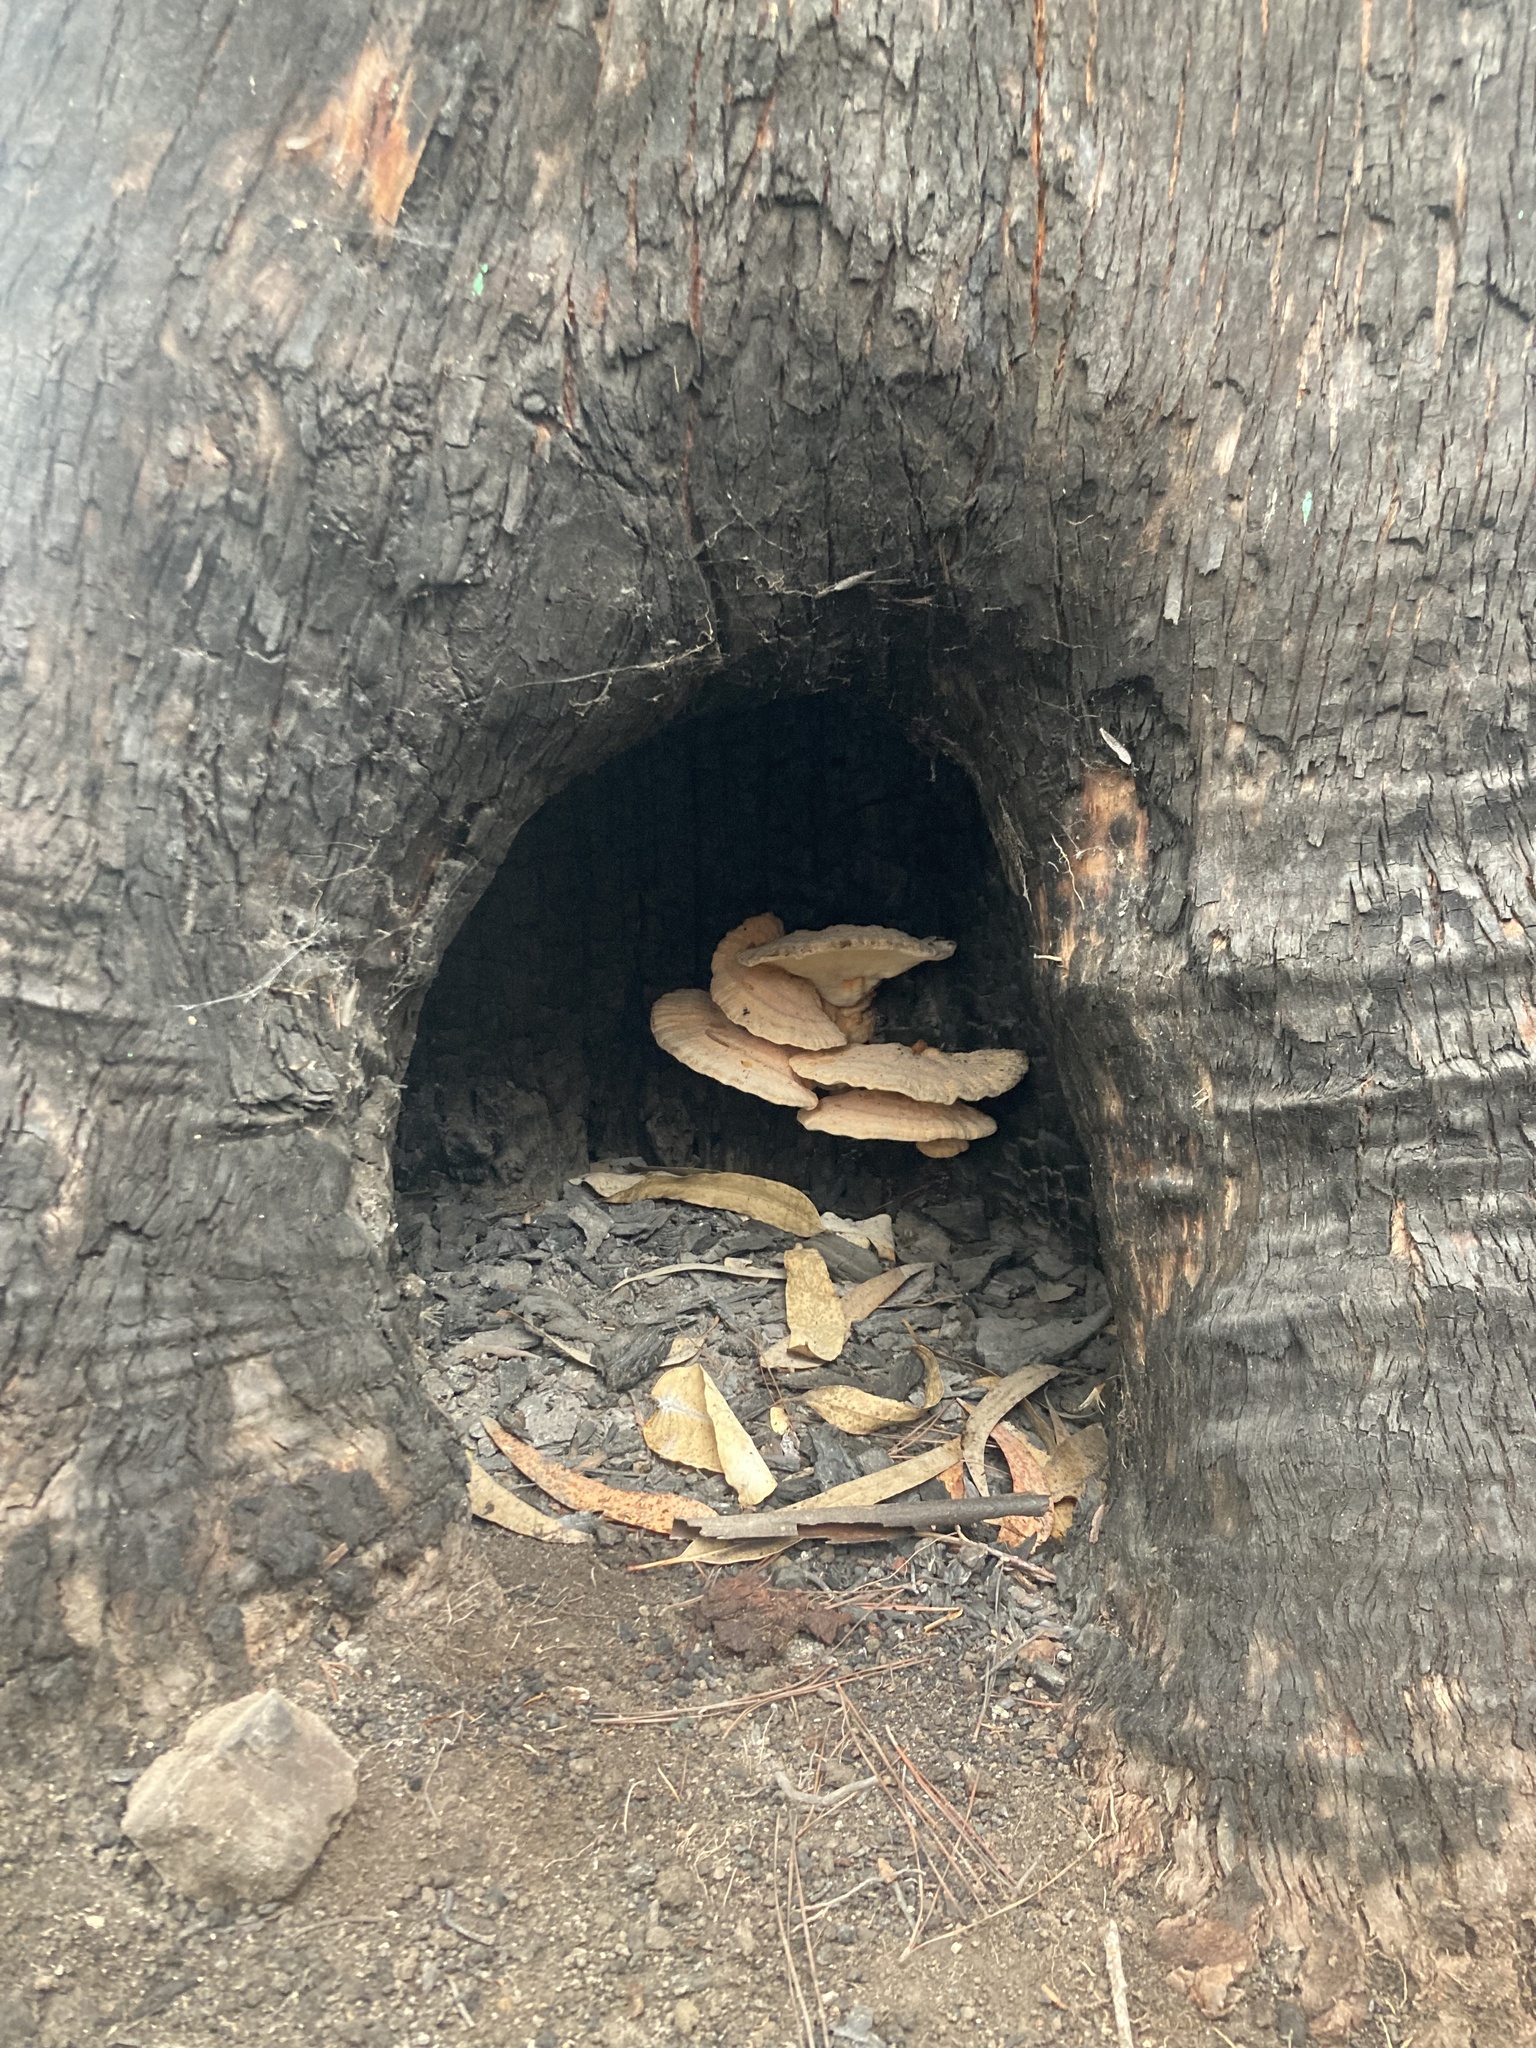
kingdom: Fungi
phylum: Basidiomycota
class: Agaricomycetes
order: Polyporales
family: Laetiporaceae
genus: Laetiporus
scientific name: Laetiporus gilbertsonii
